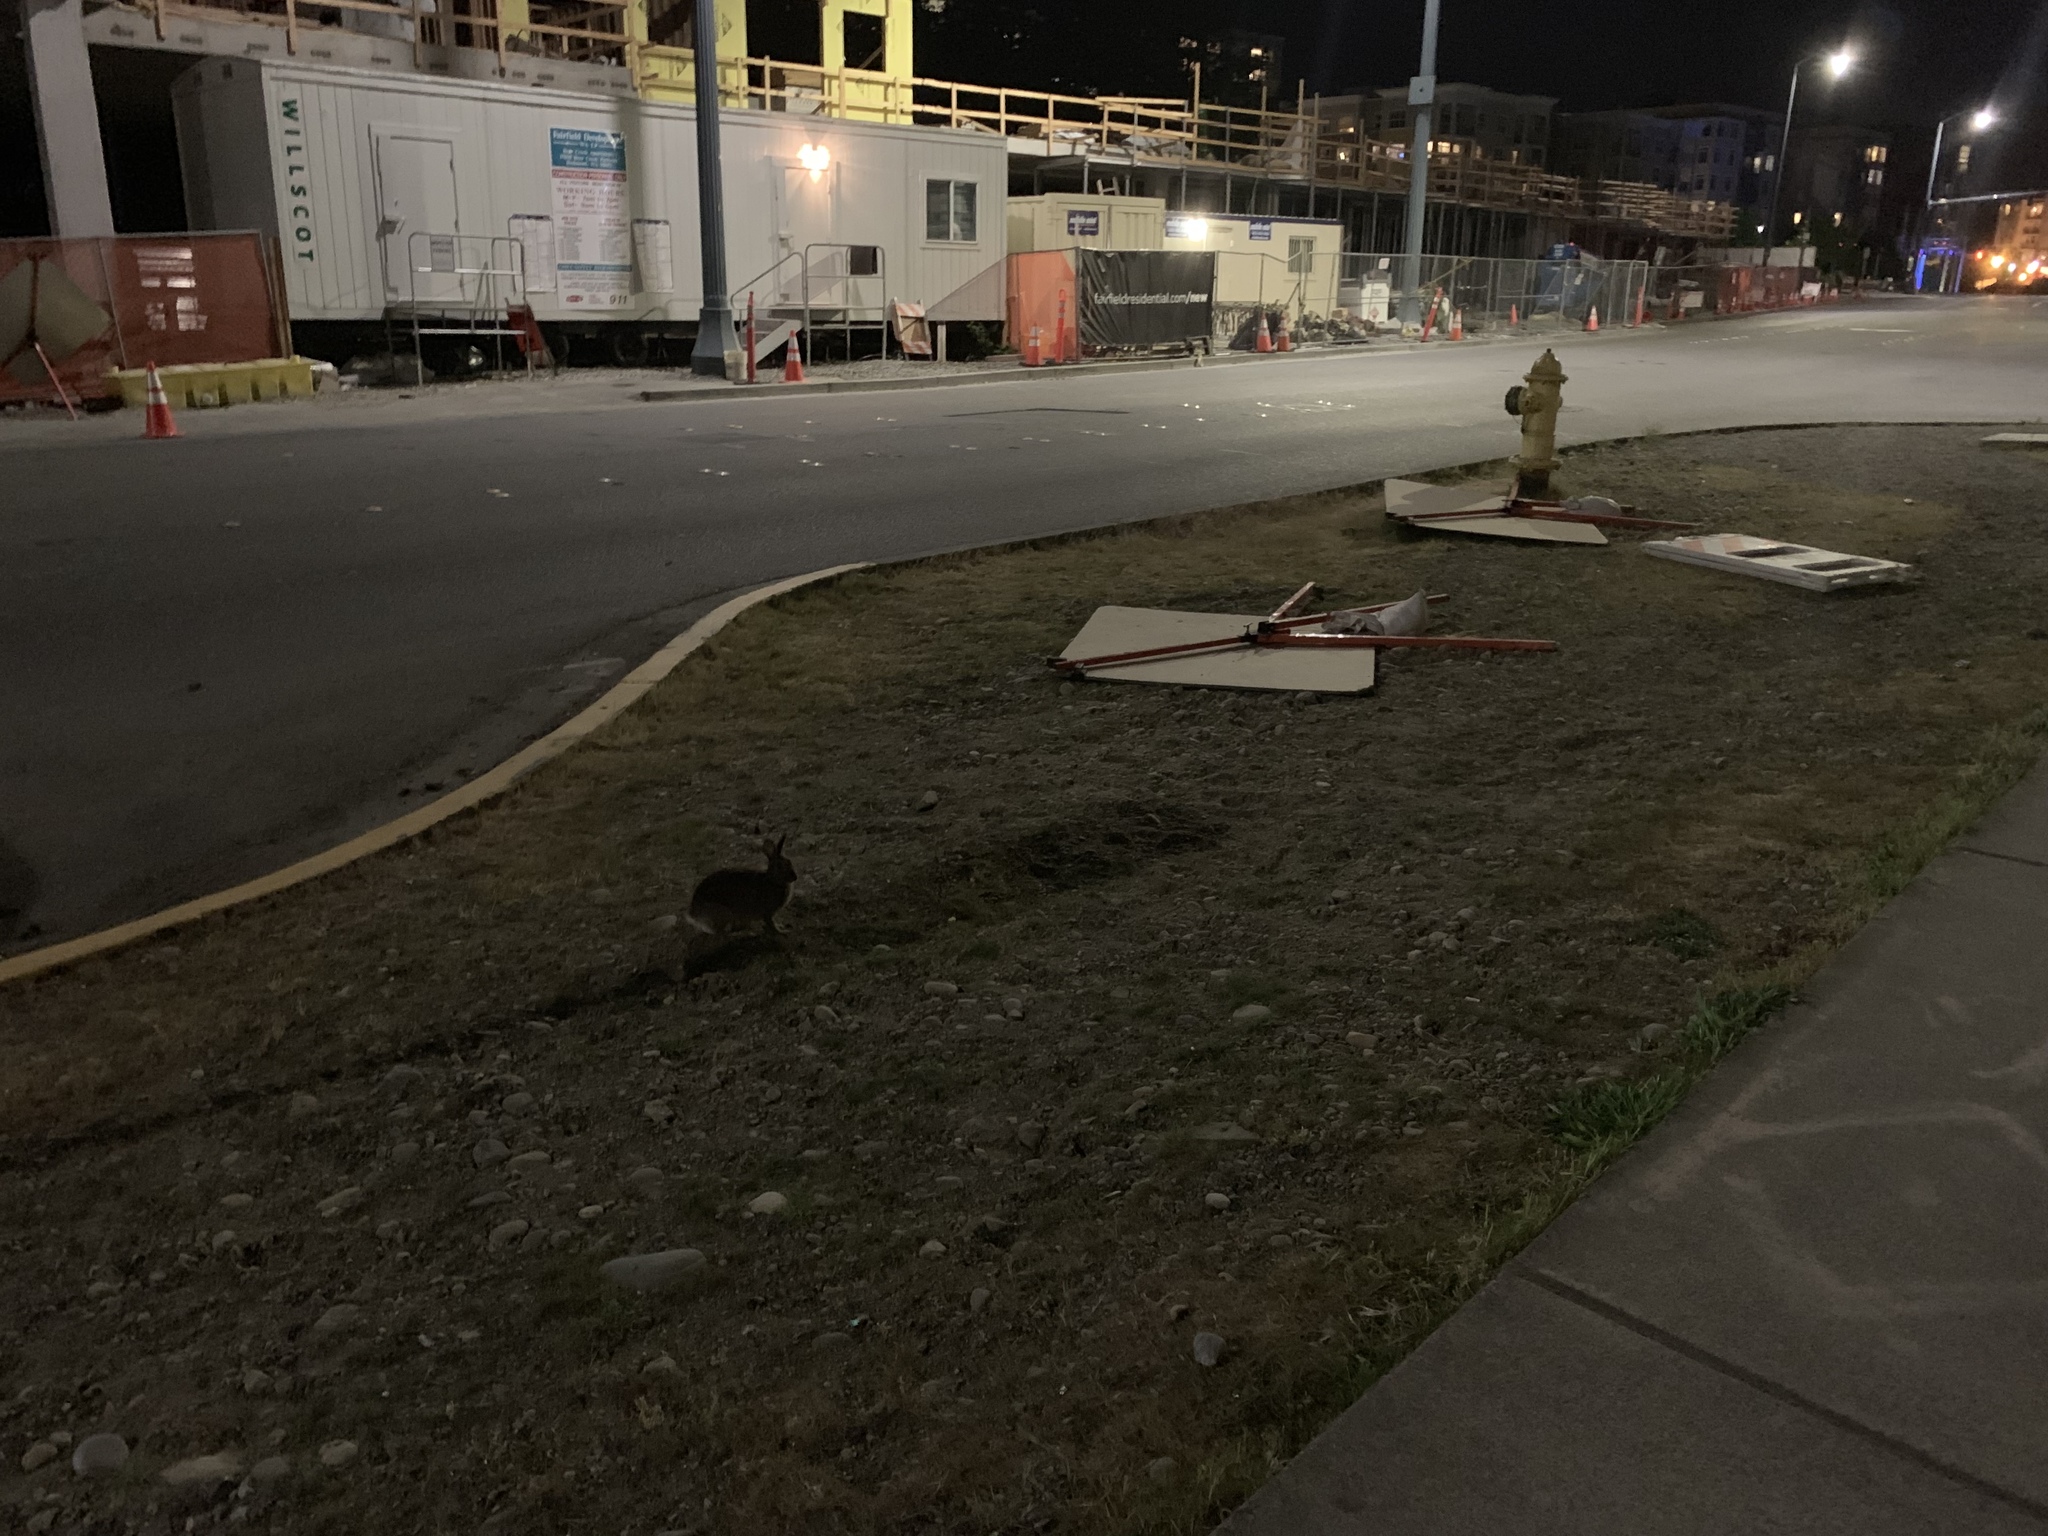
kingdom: Animalia
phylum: Chordata
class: Mammalia
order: Lagomorpha
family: Leporidae
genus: Sylvilagus
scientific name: Sylvilagus floridanus
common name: Eastern cottontail
